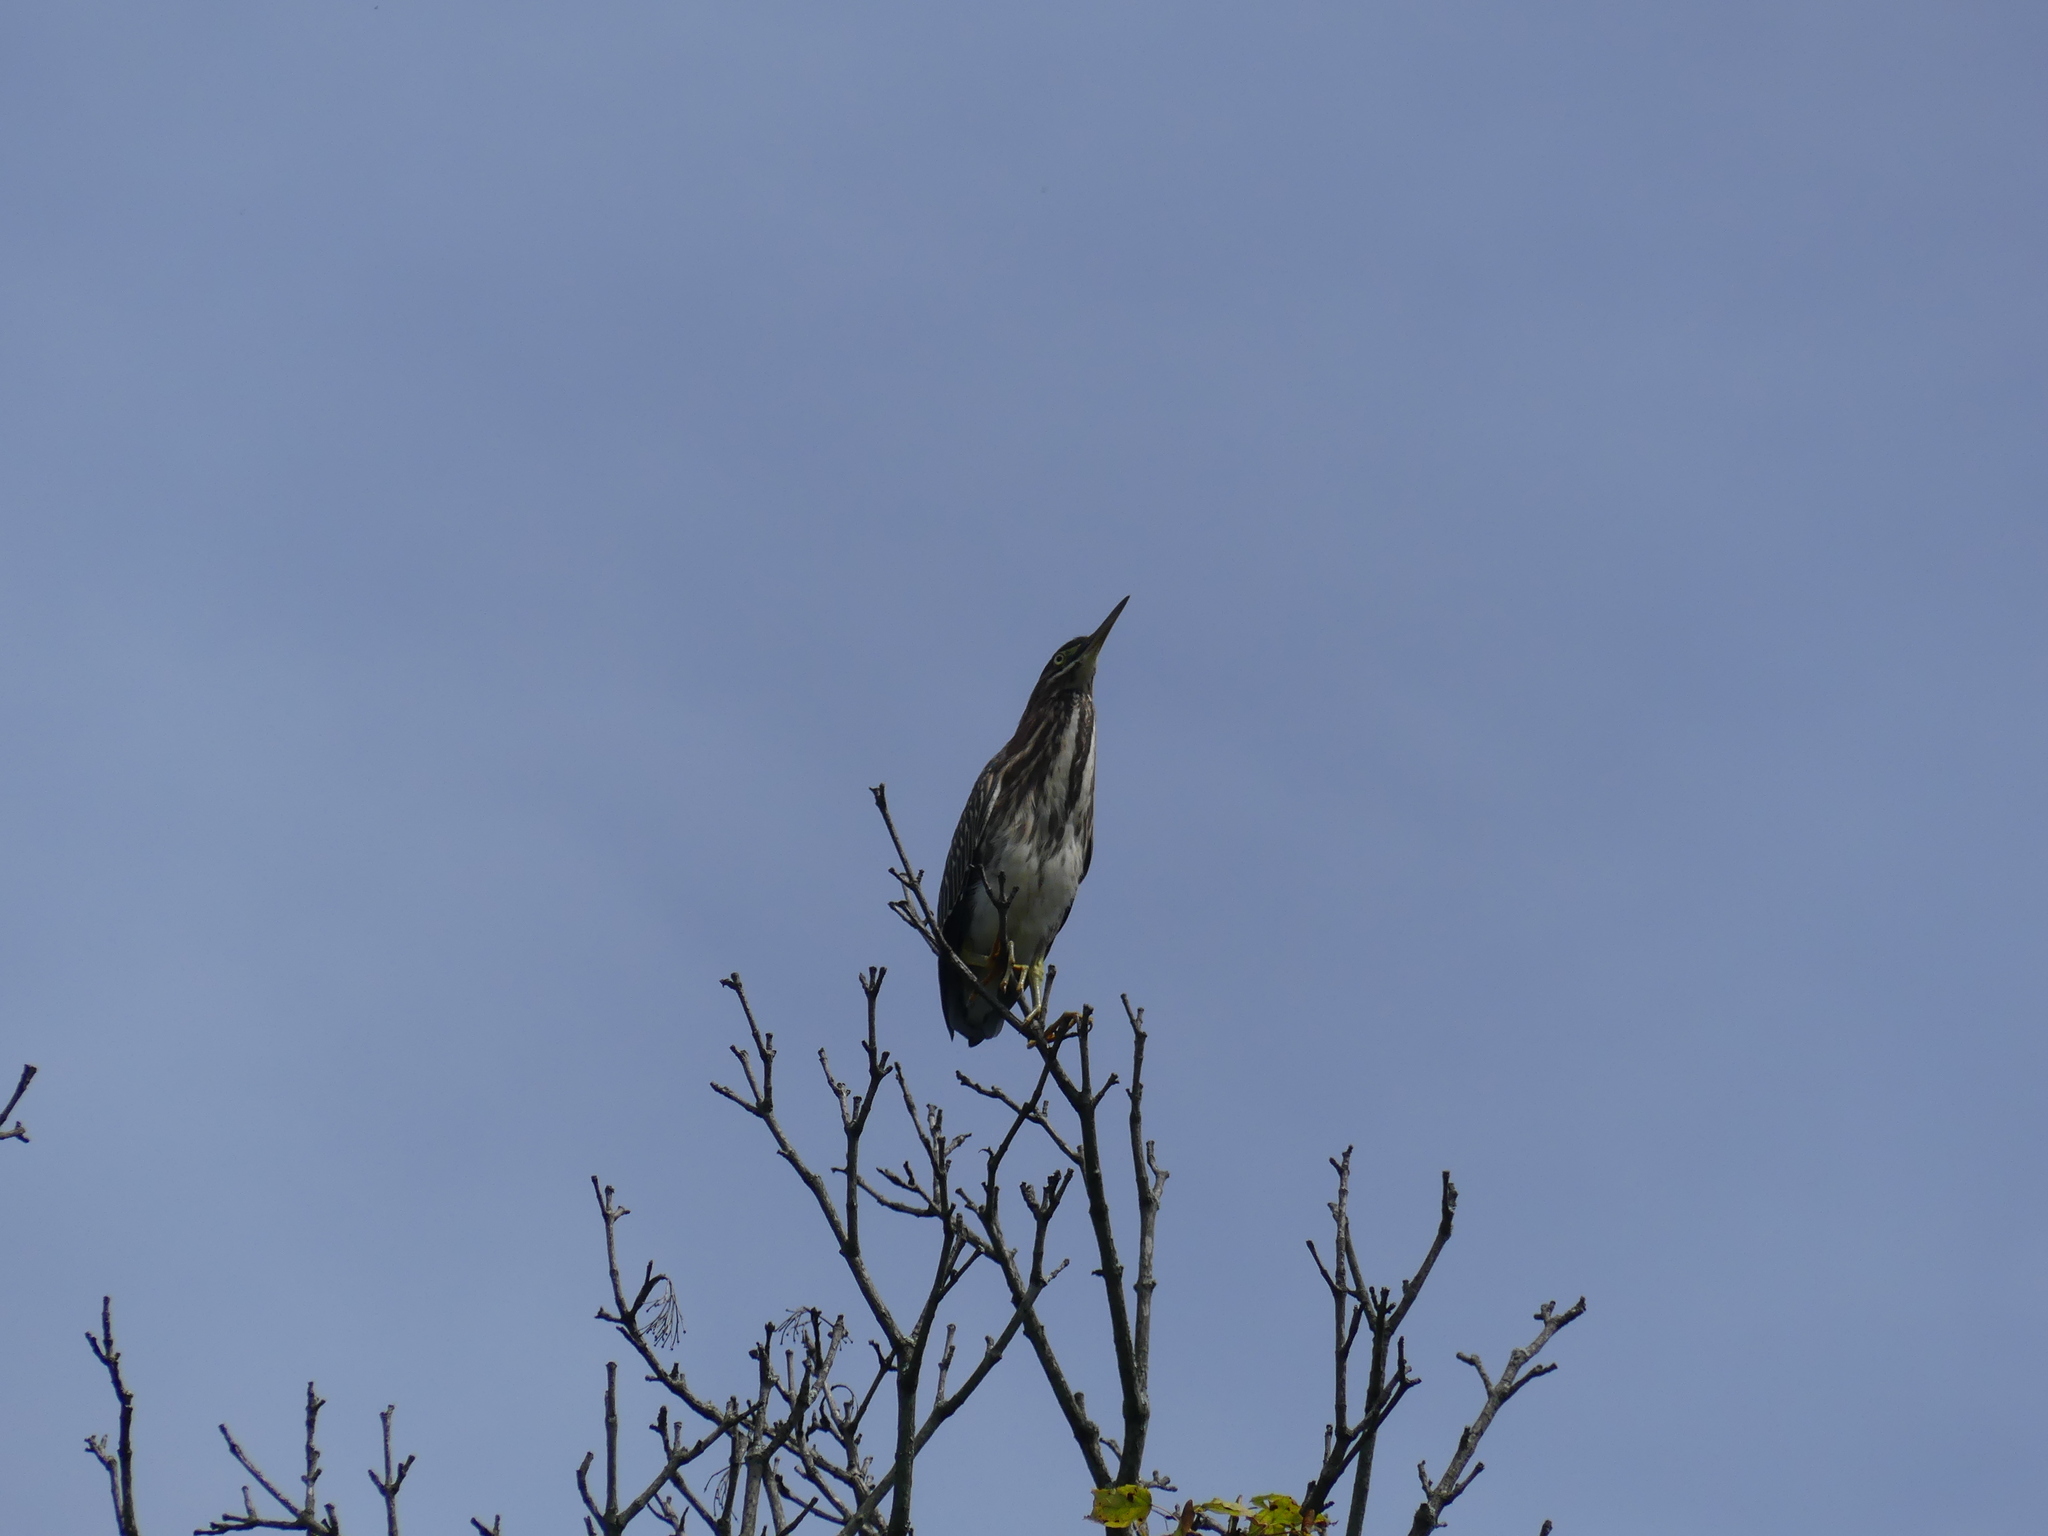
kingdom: Animalia
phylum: Chordata
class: Aves
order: Pelecaniformes
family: Ardeidae
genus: Butorides
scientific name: Butorides virescens
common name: Green heron
